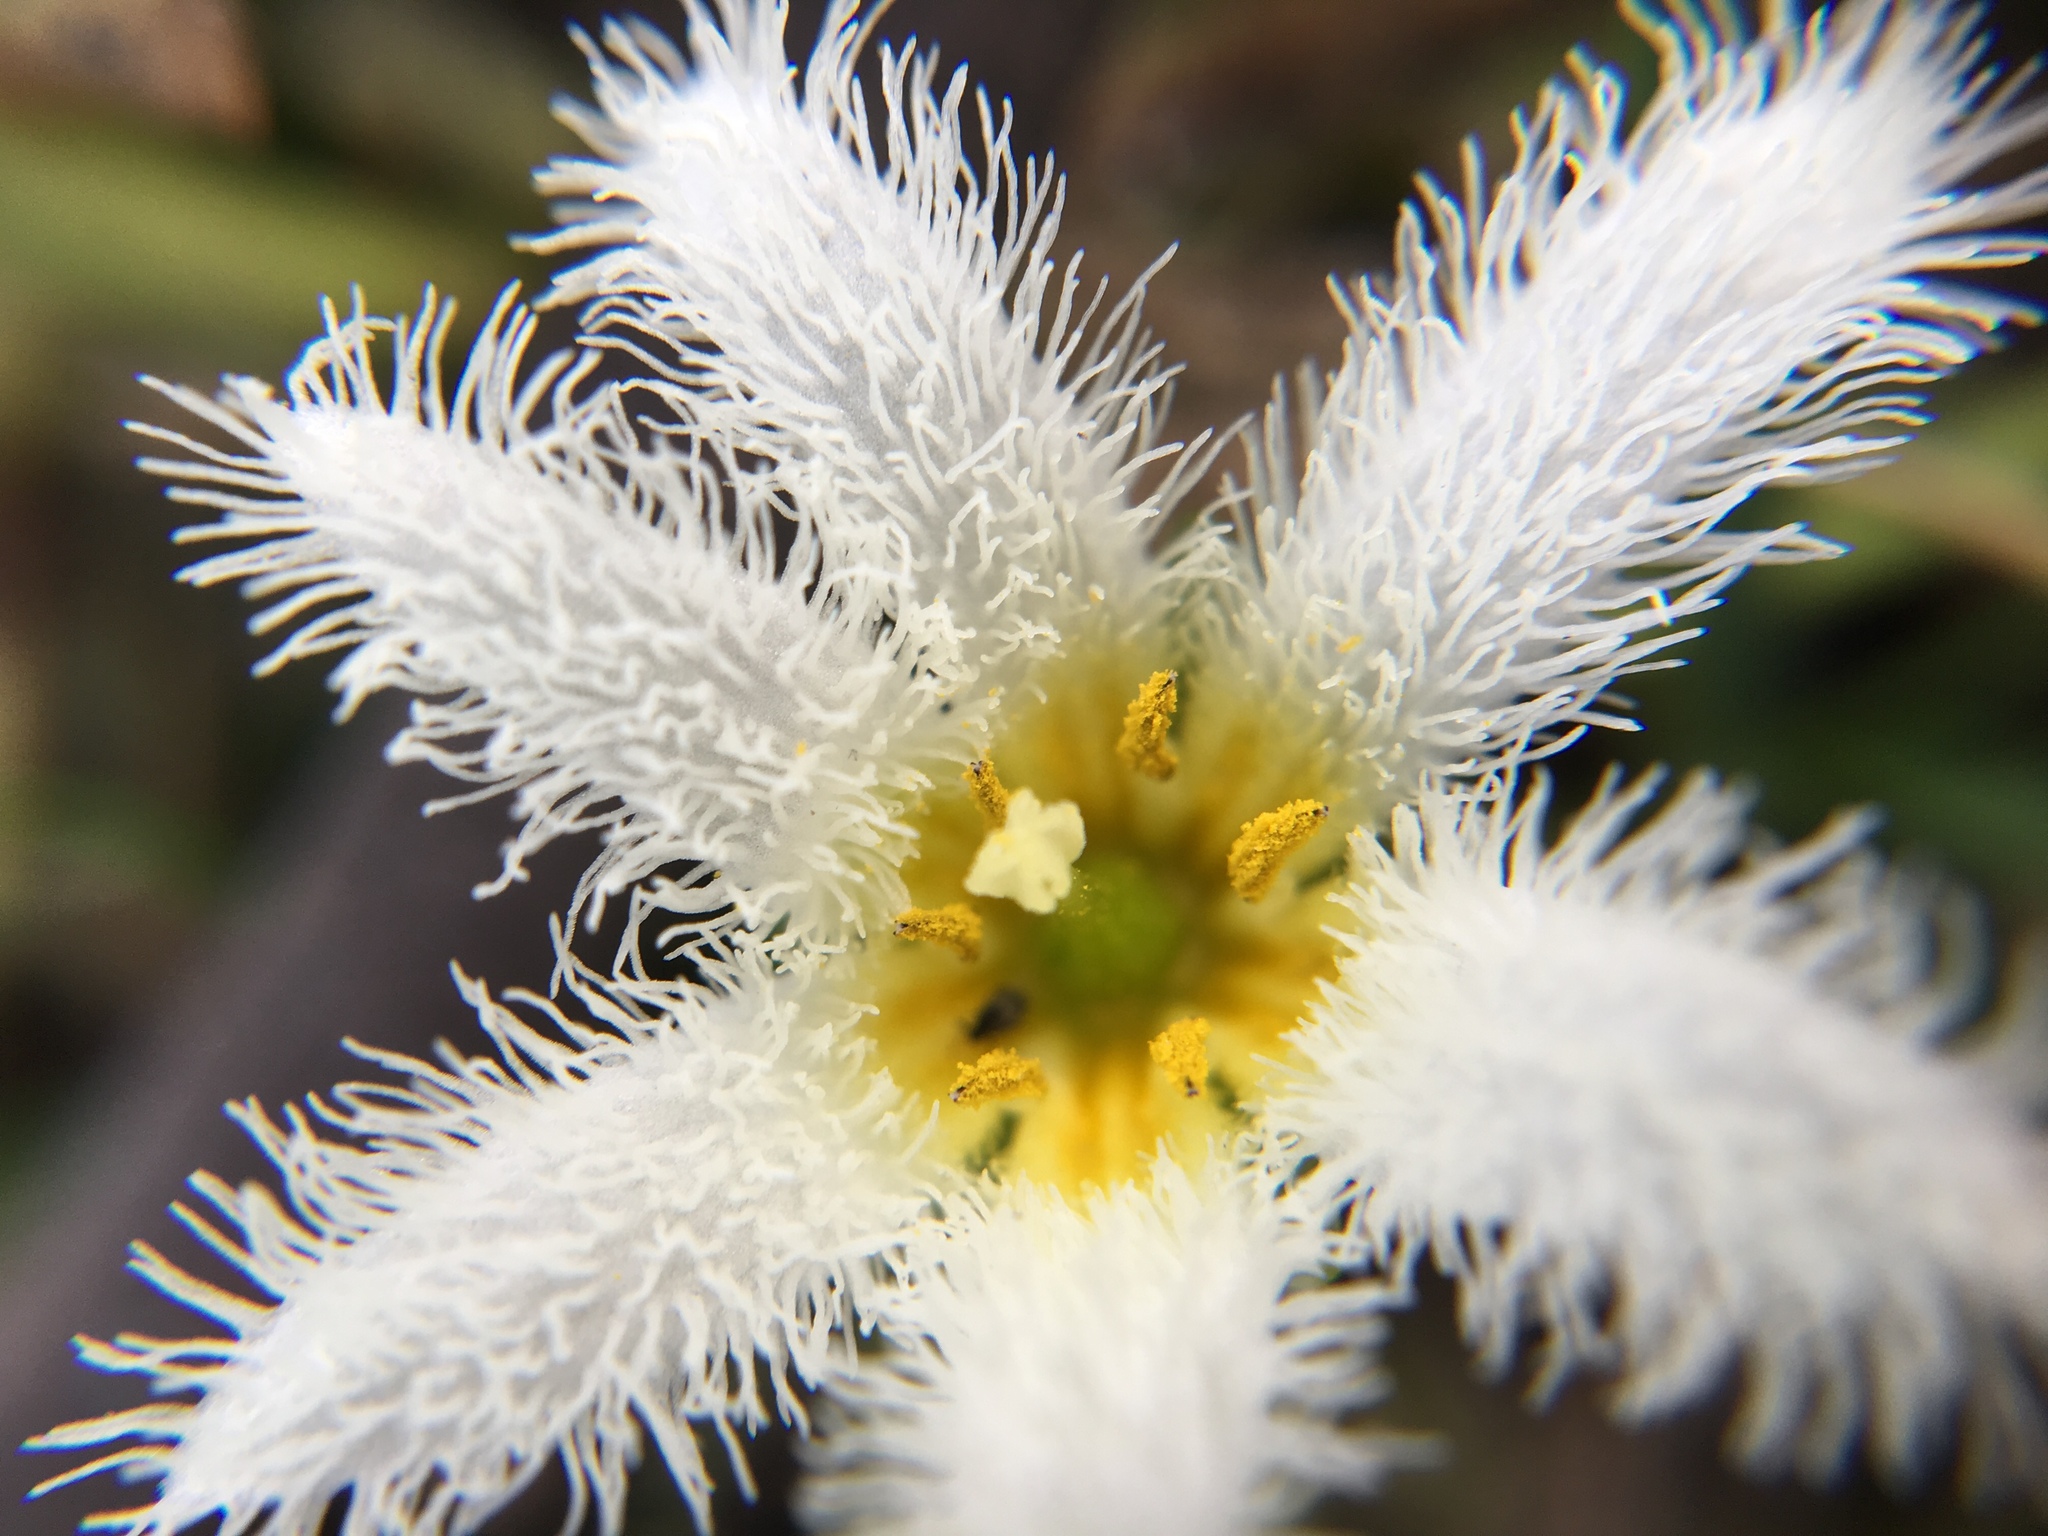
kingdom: Plantae
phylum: Tracheophyta
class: Magnoliopsida
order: Asterales
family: Menyanthaceae
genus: Nymphoides
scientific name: Nymphoides indica
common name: Water-snowflake
